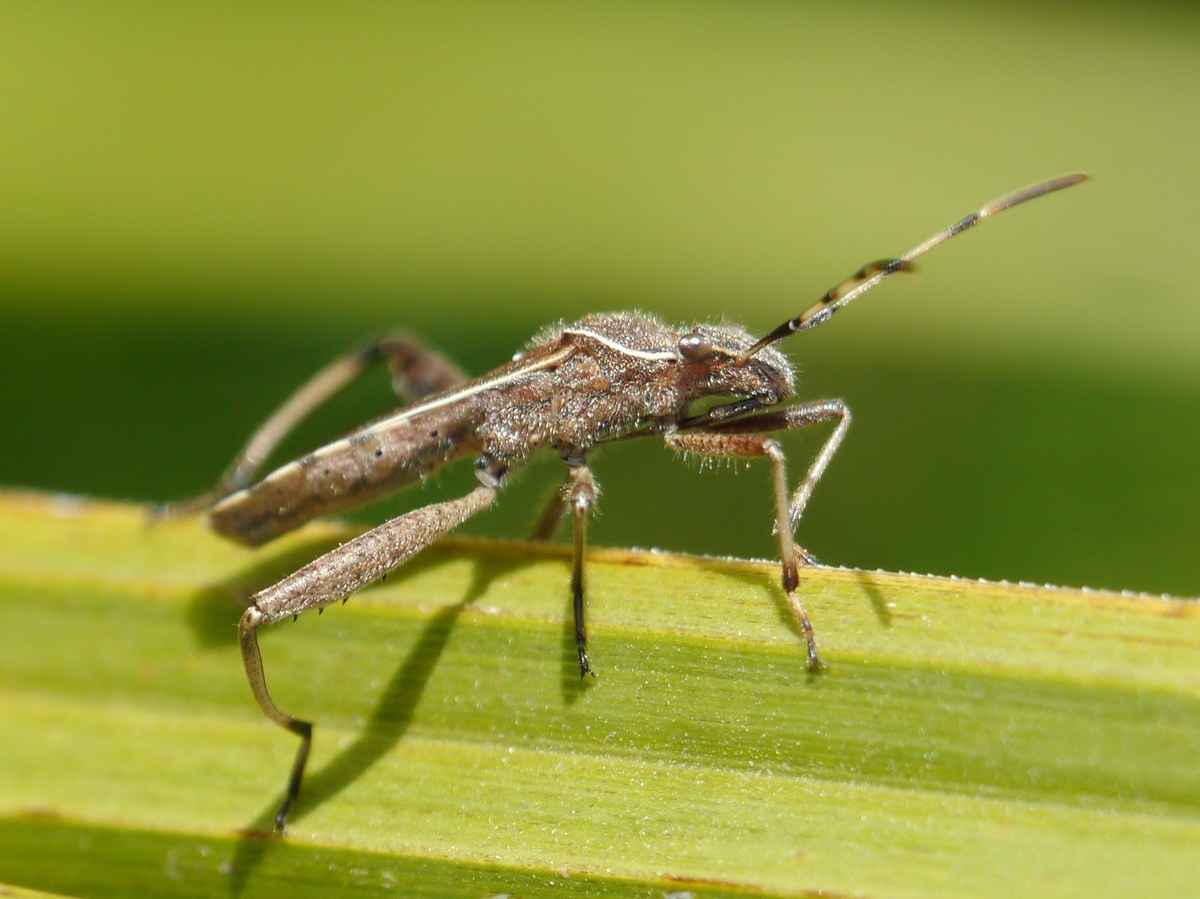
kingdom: Animalia
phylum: Arthropoda
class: Insecta
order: Hemiptera
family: Alydidae
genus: Camptopus
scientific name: Camptopus lateralis
